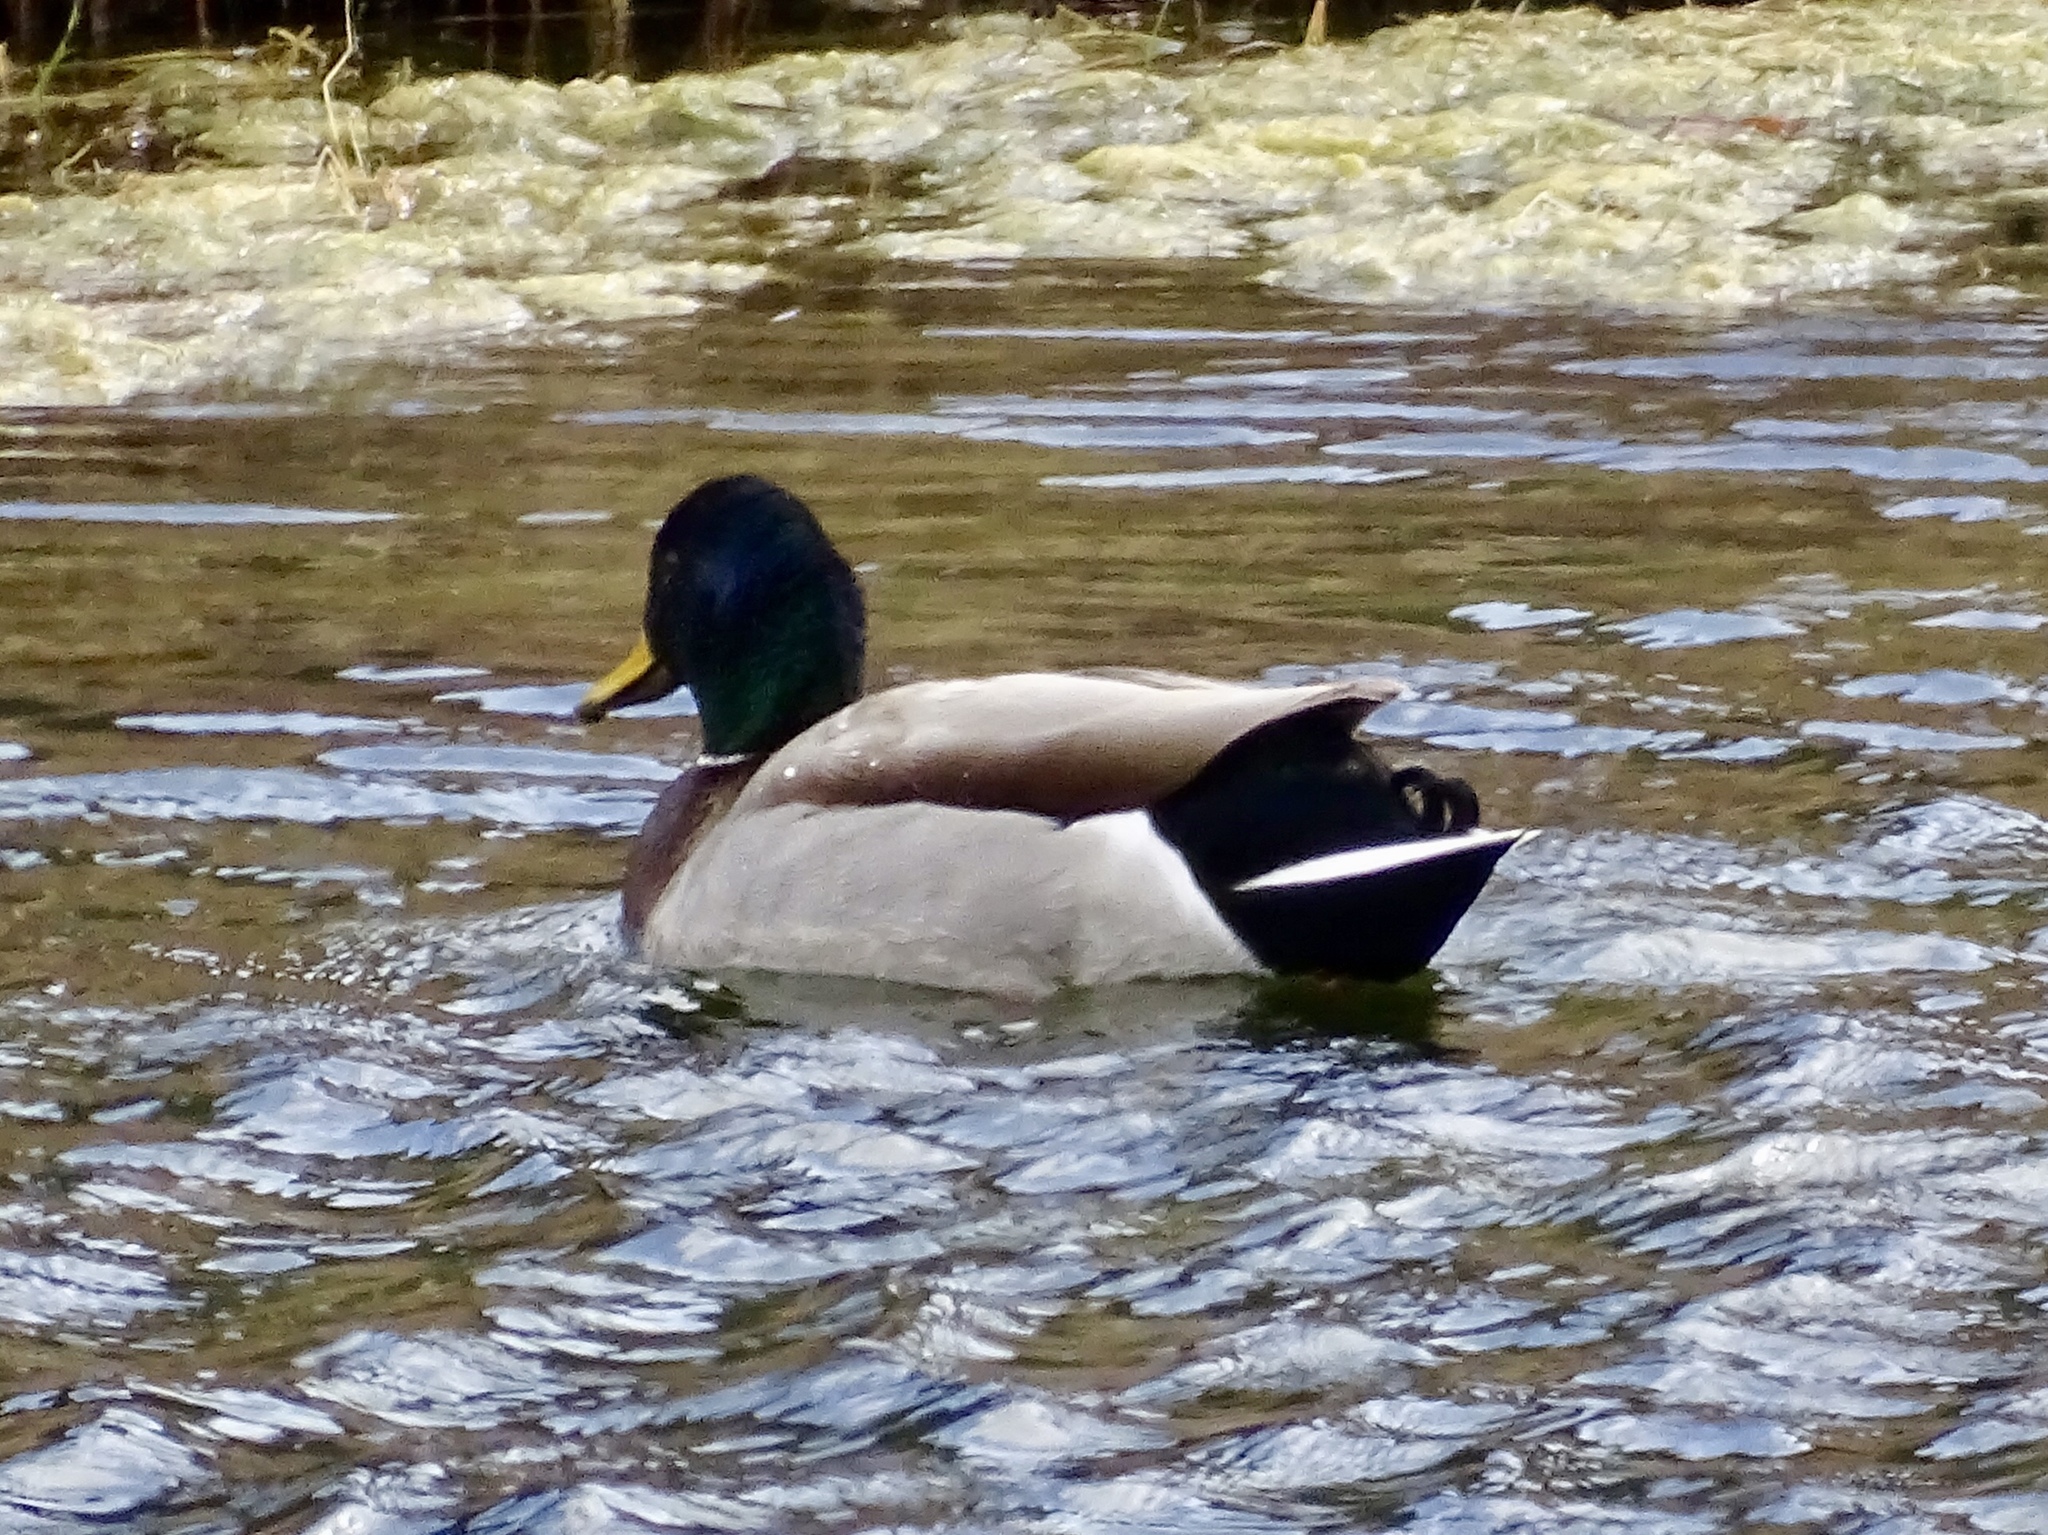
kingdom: Animalia
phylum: Chordata
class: Aves
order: Anseriformes
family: Anatidae
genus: Anas
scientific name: Anas platyrhynchos
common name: Mallard
